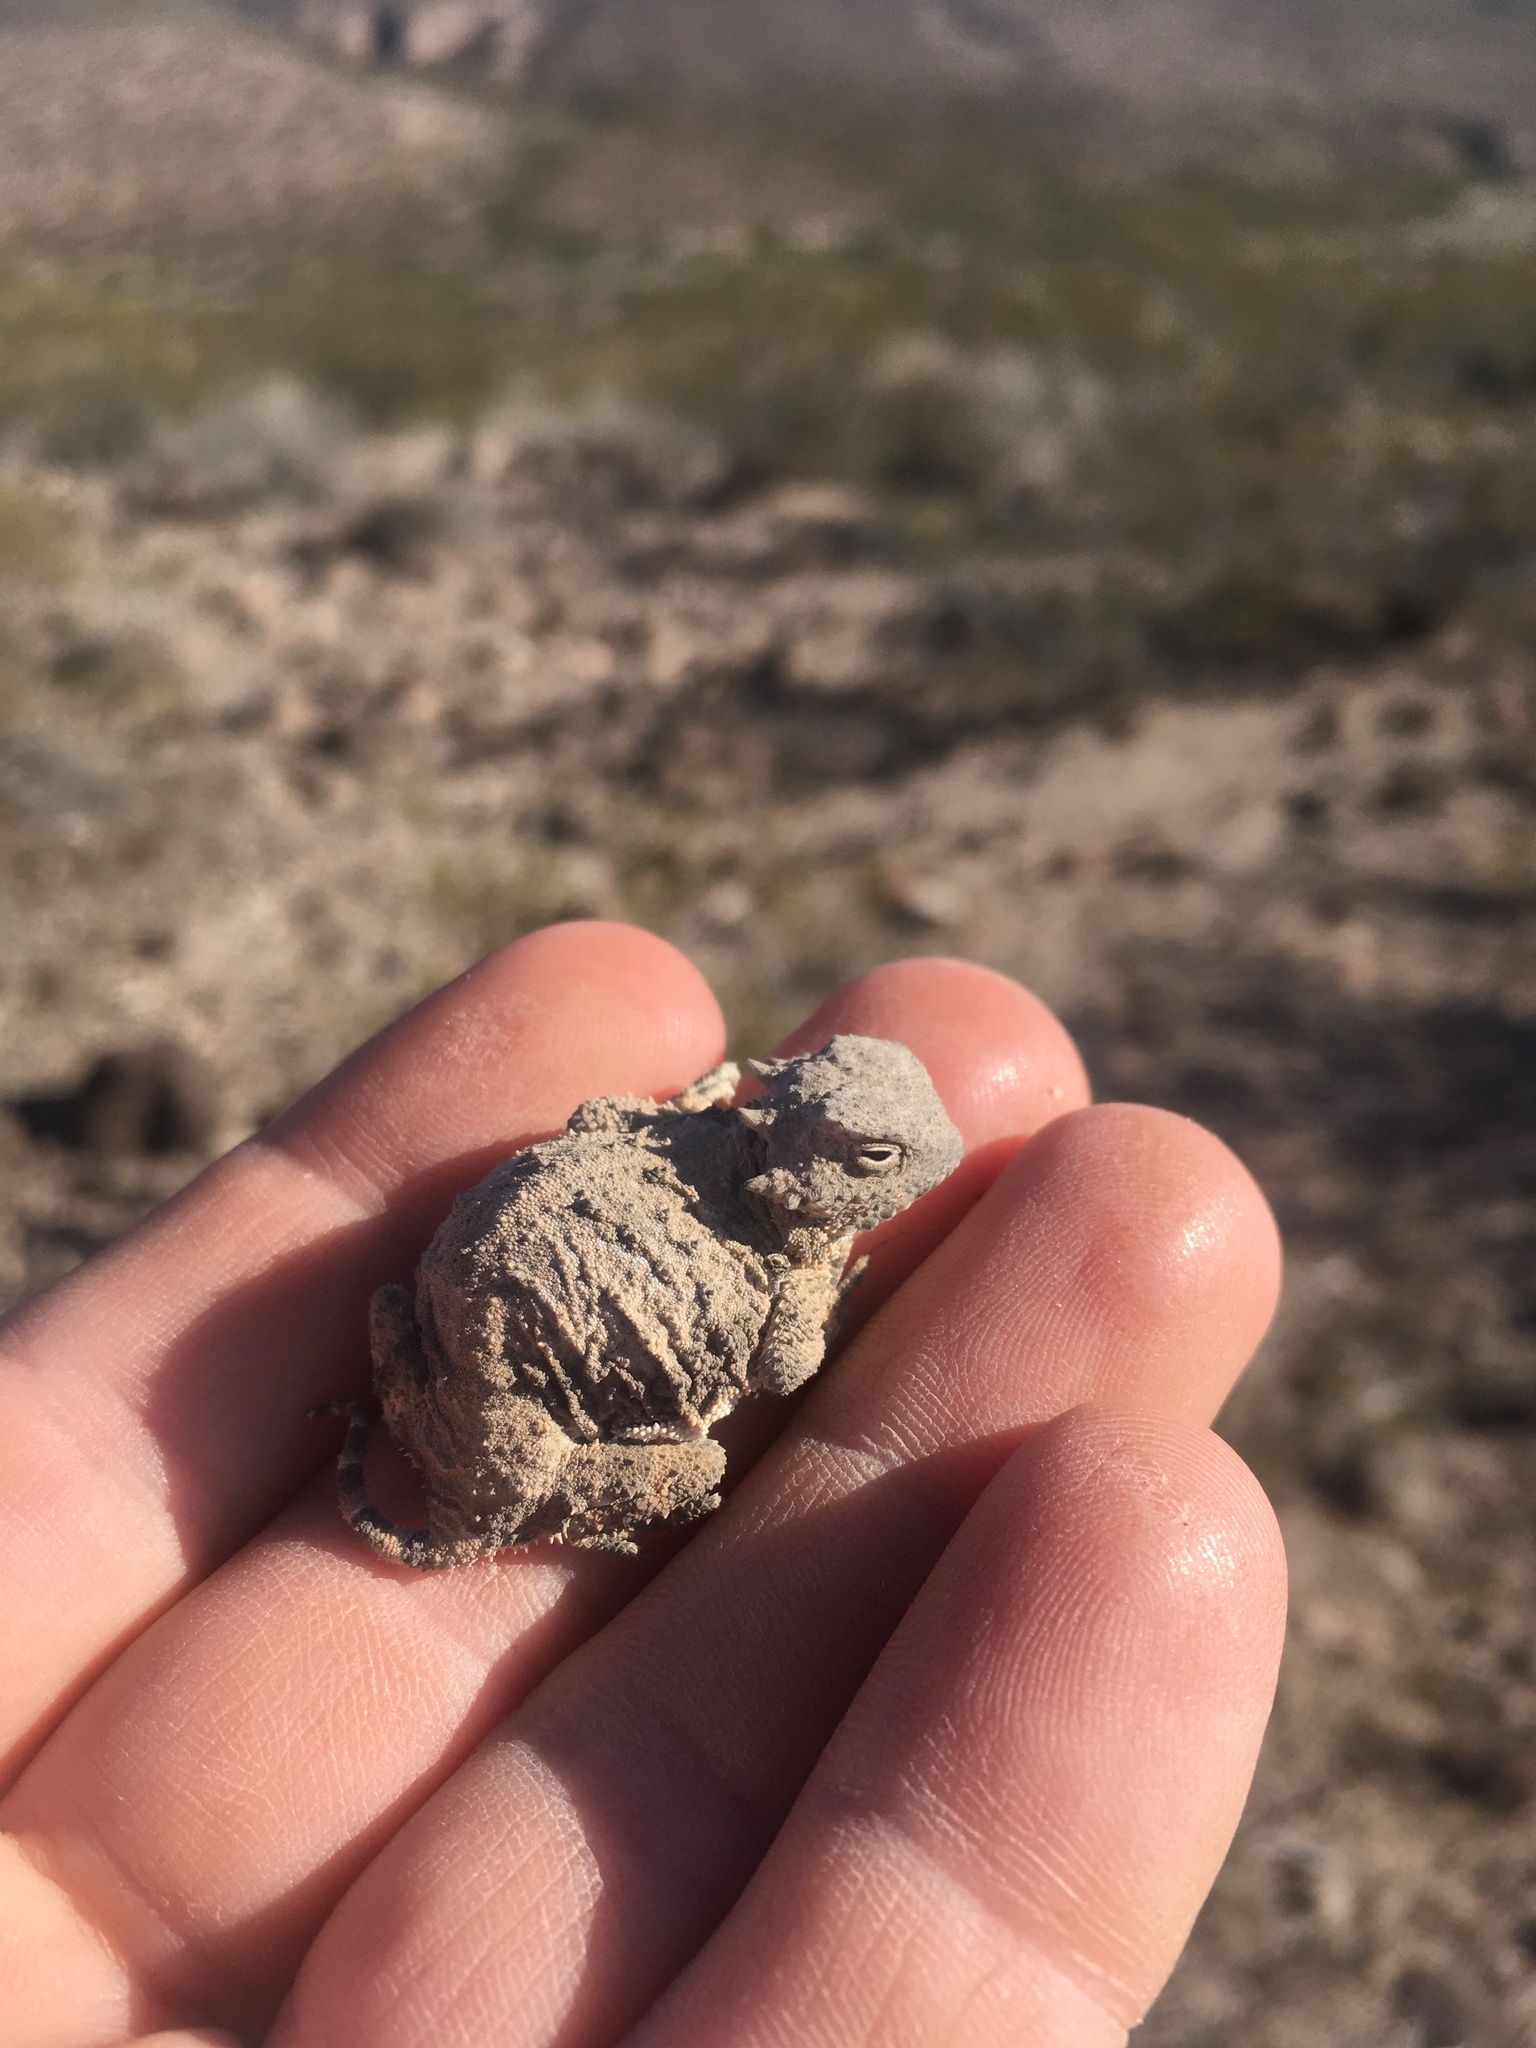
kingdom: Animalia
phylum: Chordata
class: Squamata
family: Phrynosomatidae
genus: Phrynosoma
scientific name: Phrynosoma modestum
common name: Roundtail horned lizard
